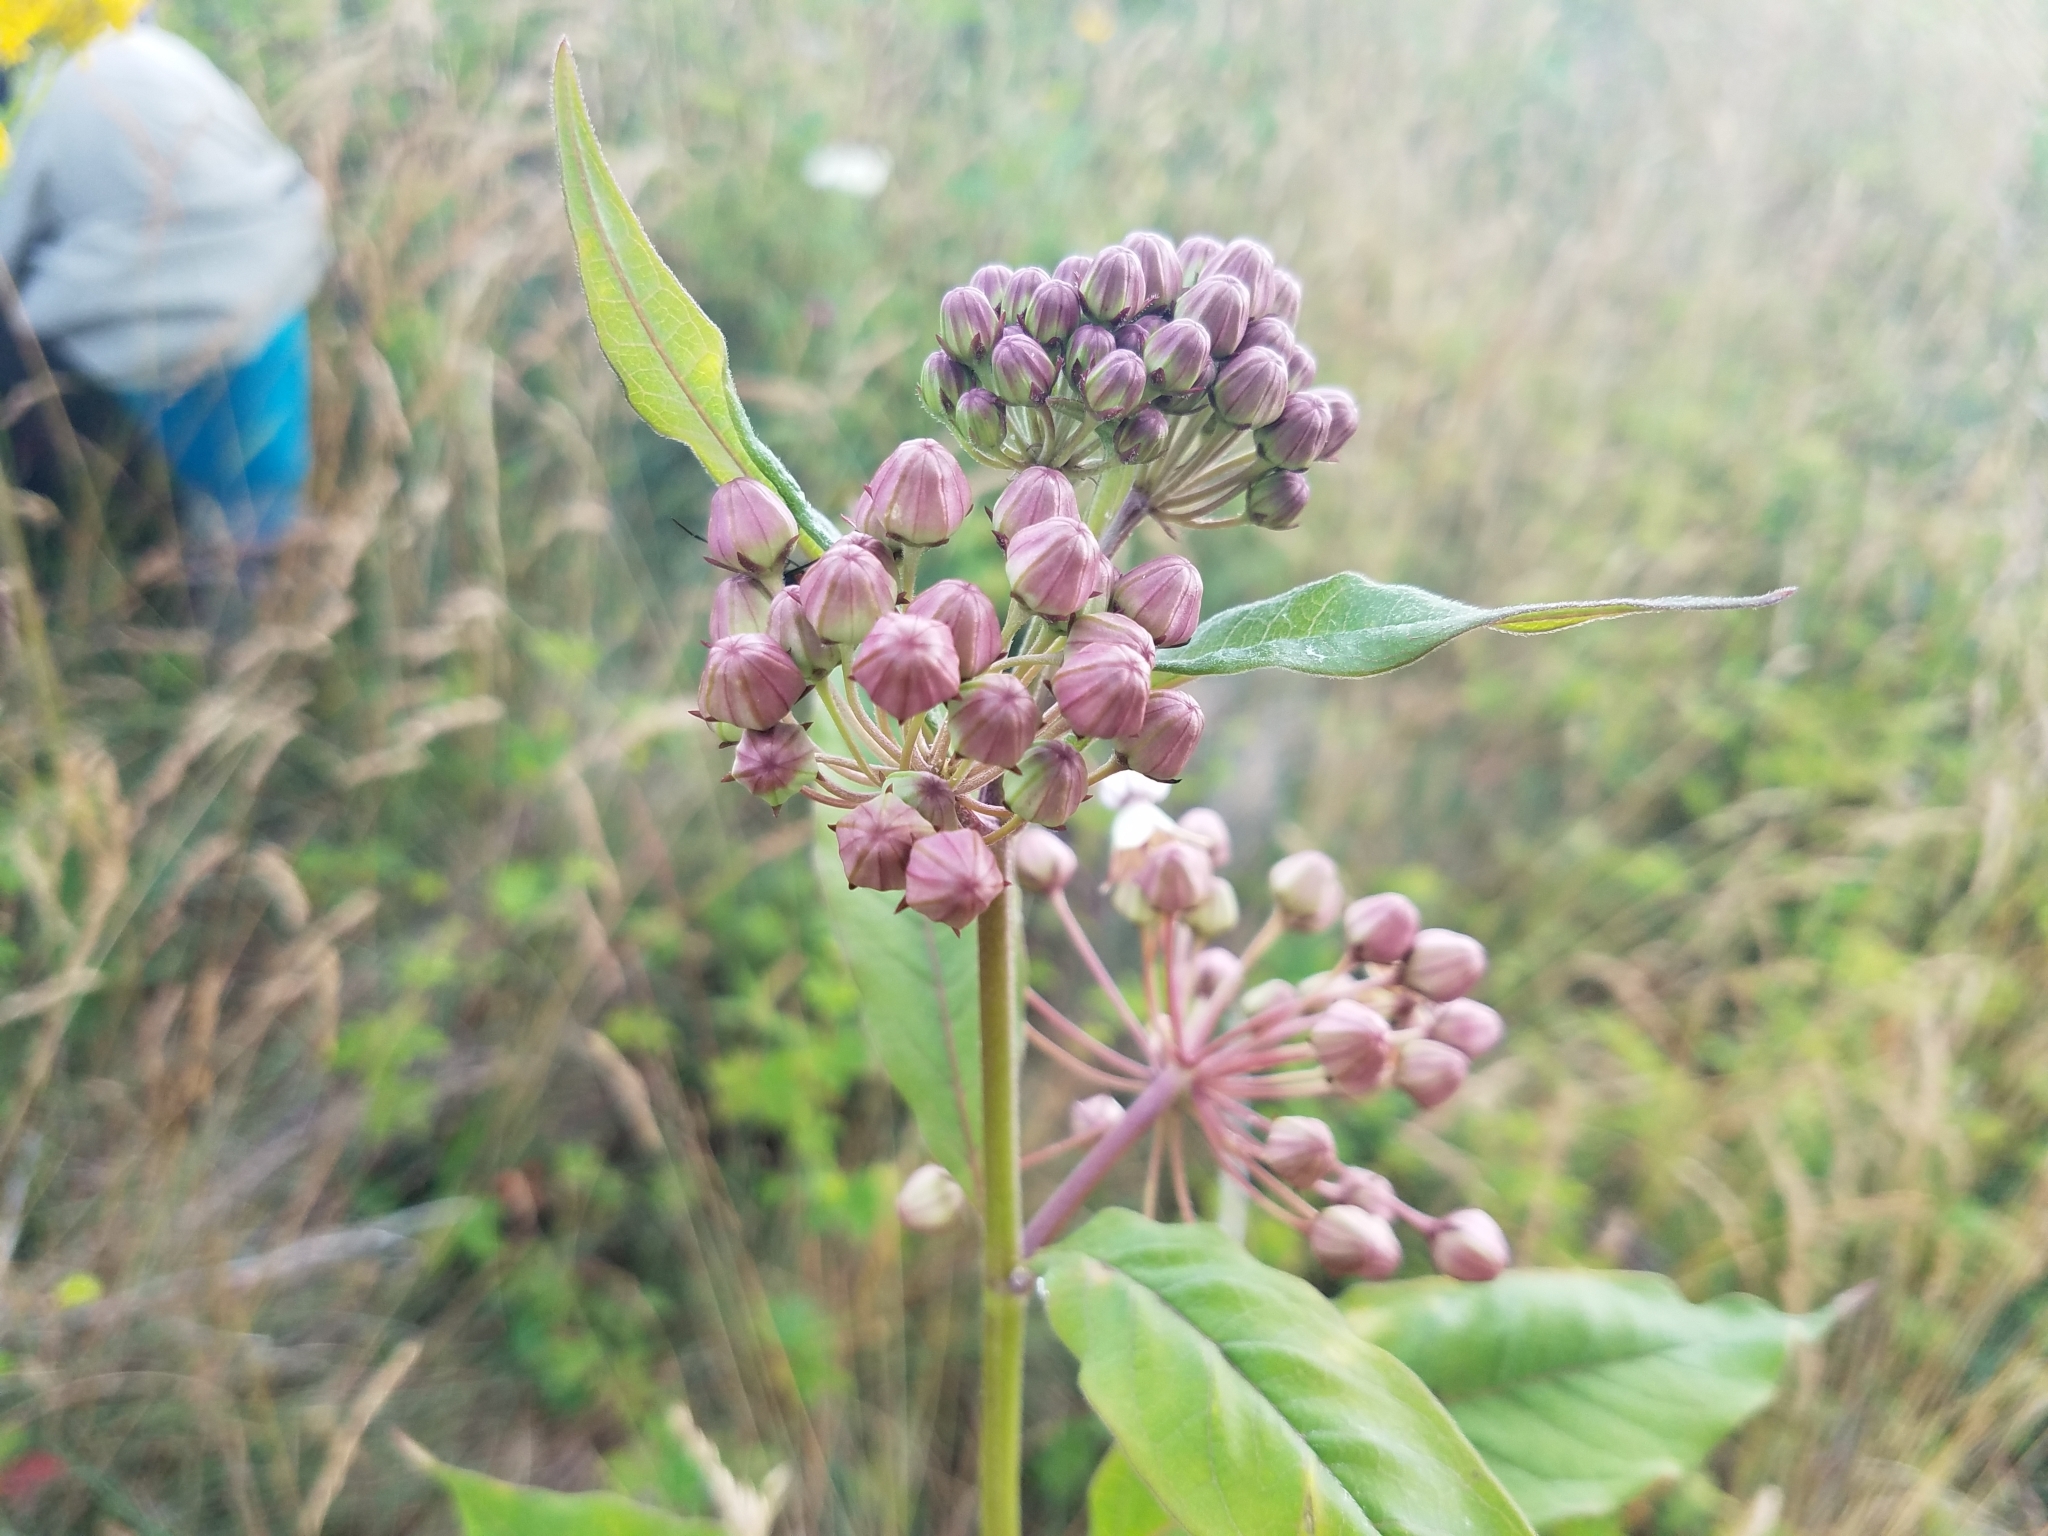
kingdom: Plantae
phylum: Tracheophyta
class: Magnoliopsida
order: Gentianales
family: Apocynaceae
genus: Asclepias
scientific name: Asclepias exaltata
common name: Poke milkweed
